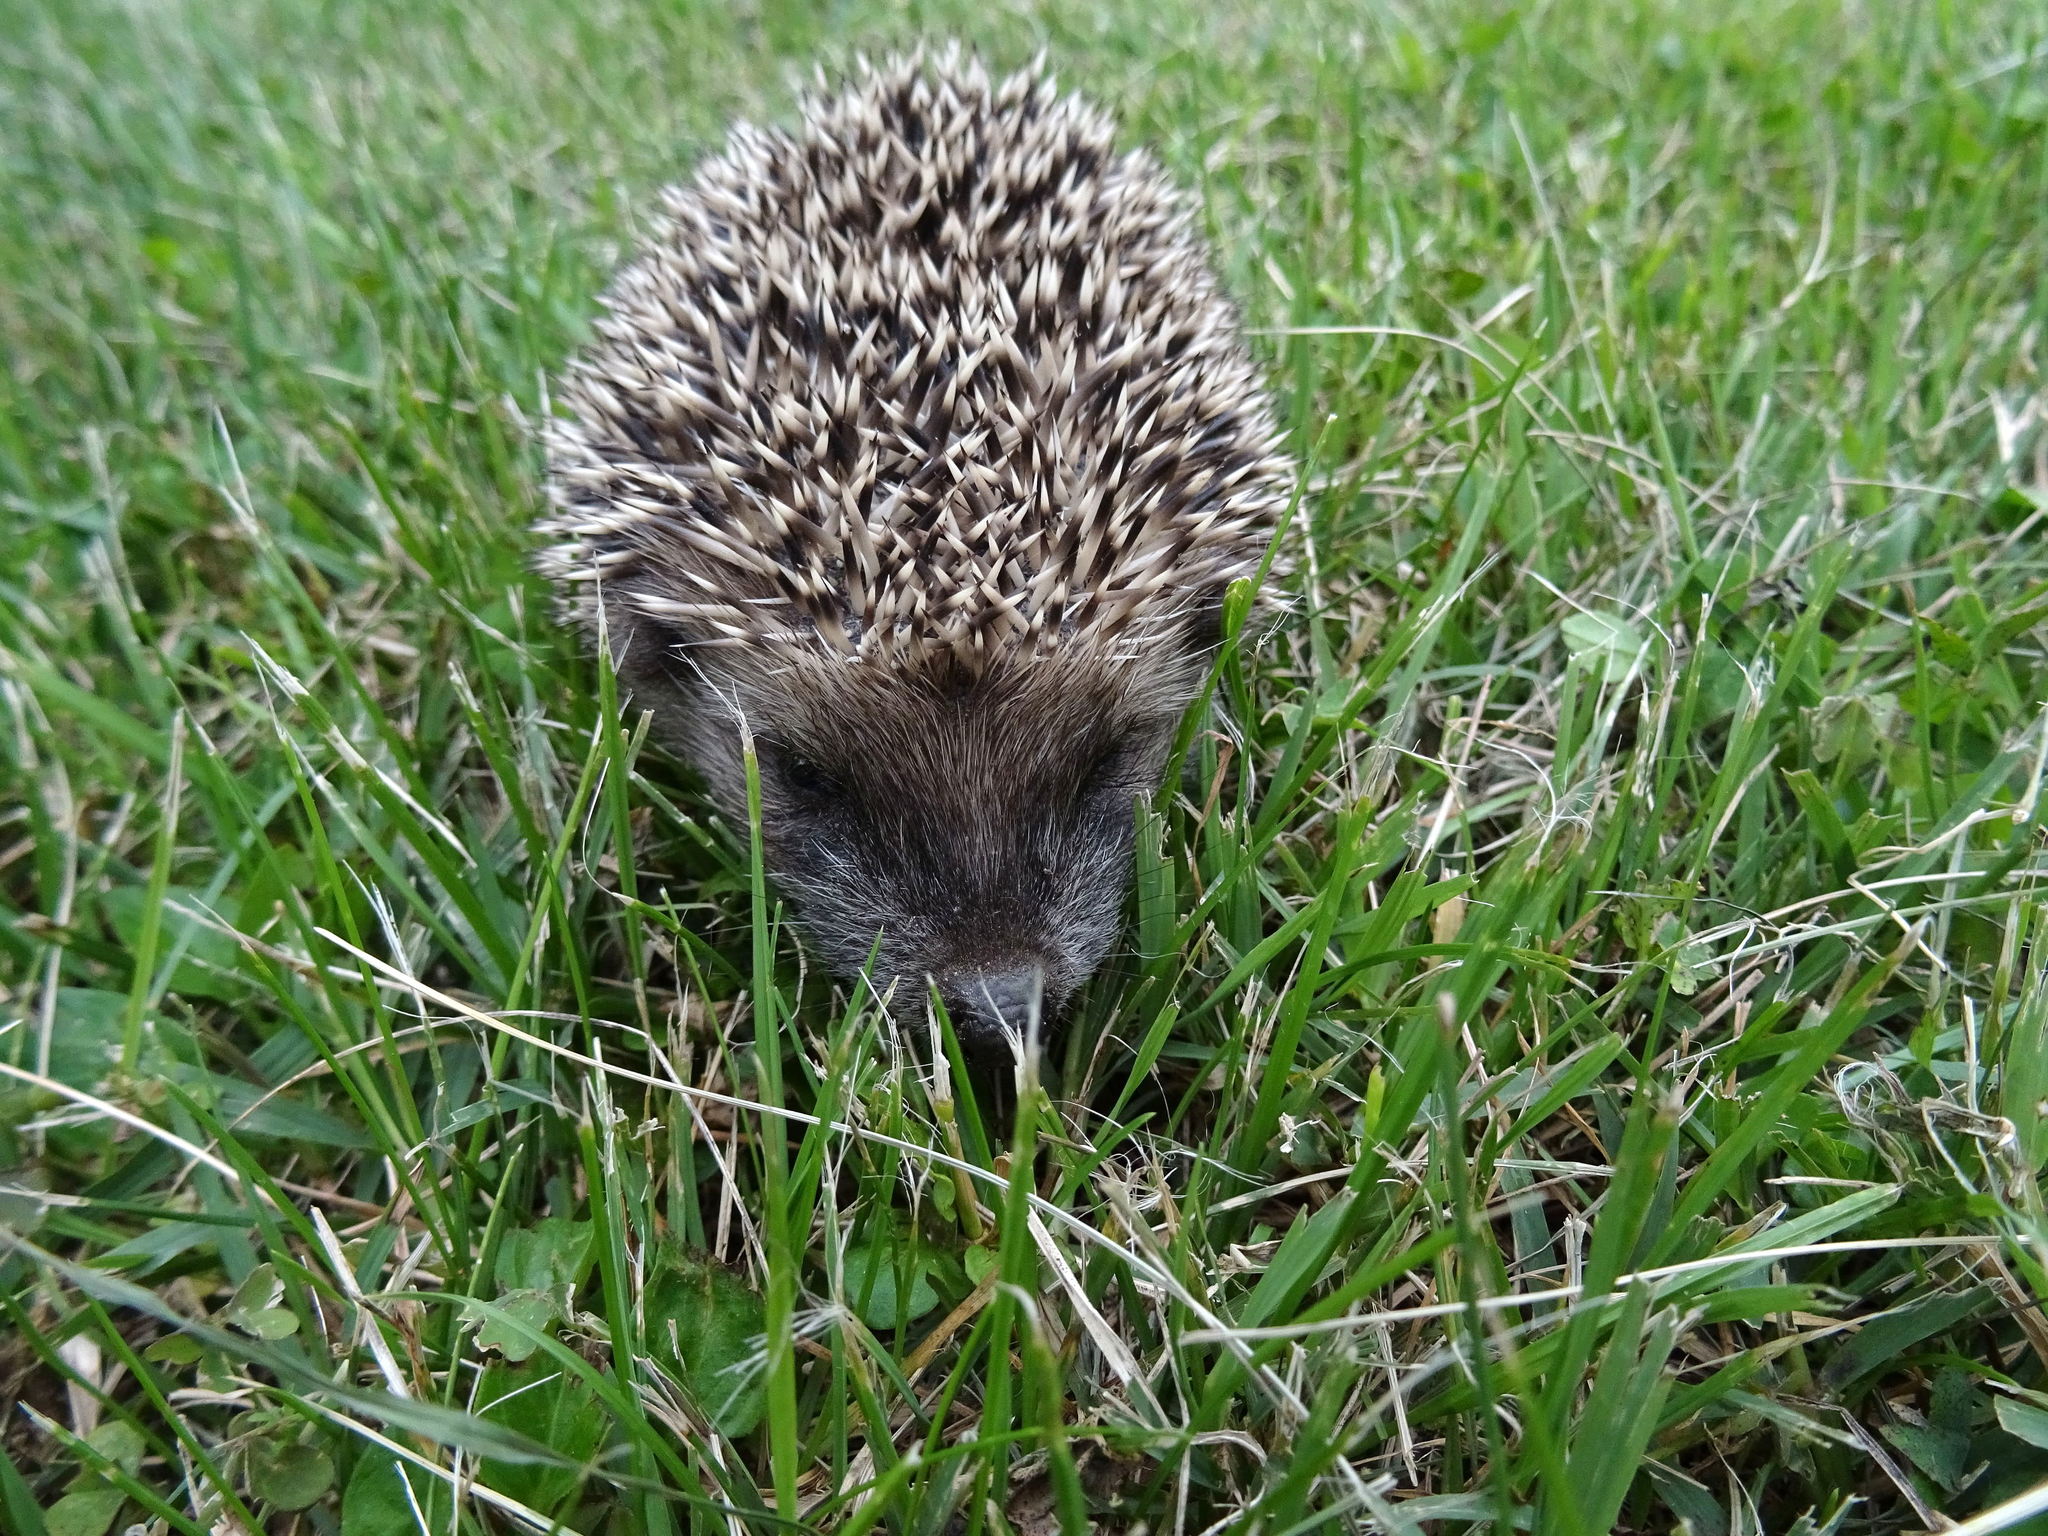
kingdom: Animalia
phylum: Chordata
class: Mammalia
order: Erinaceomorpha
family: Erinaceidae
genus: Erinaceus
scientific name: Erinaceus europaeus
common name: West european hedgehog
